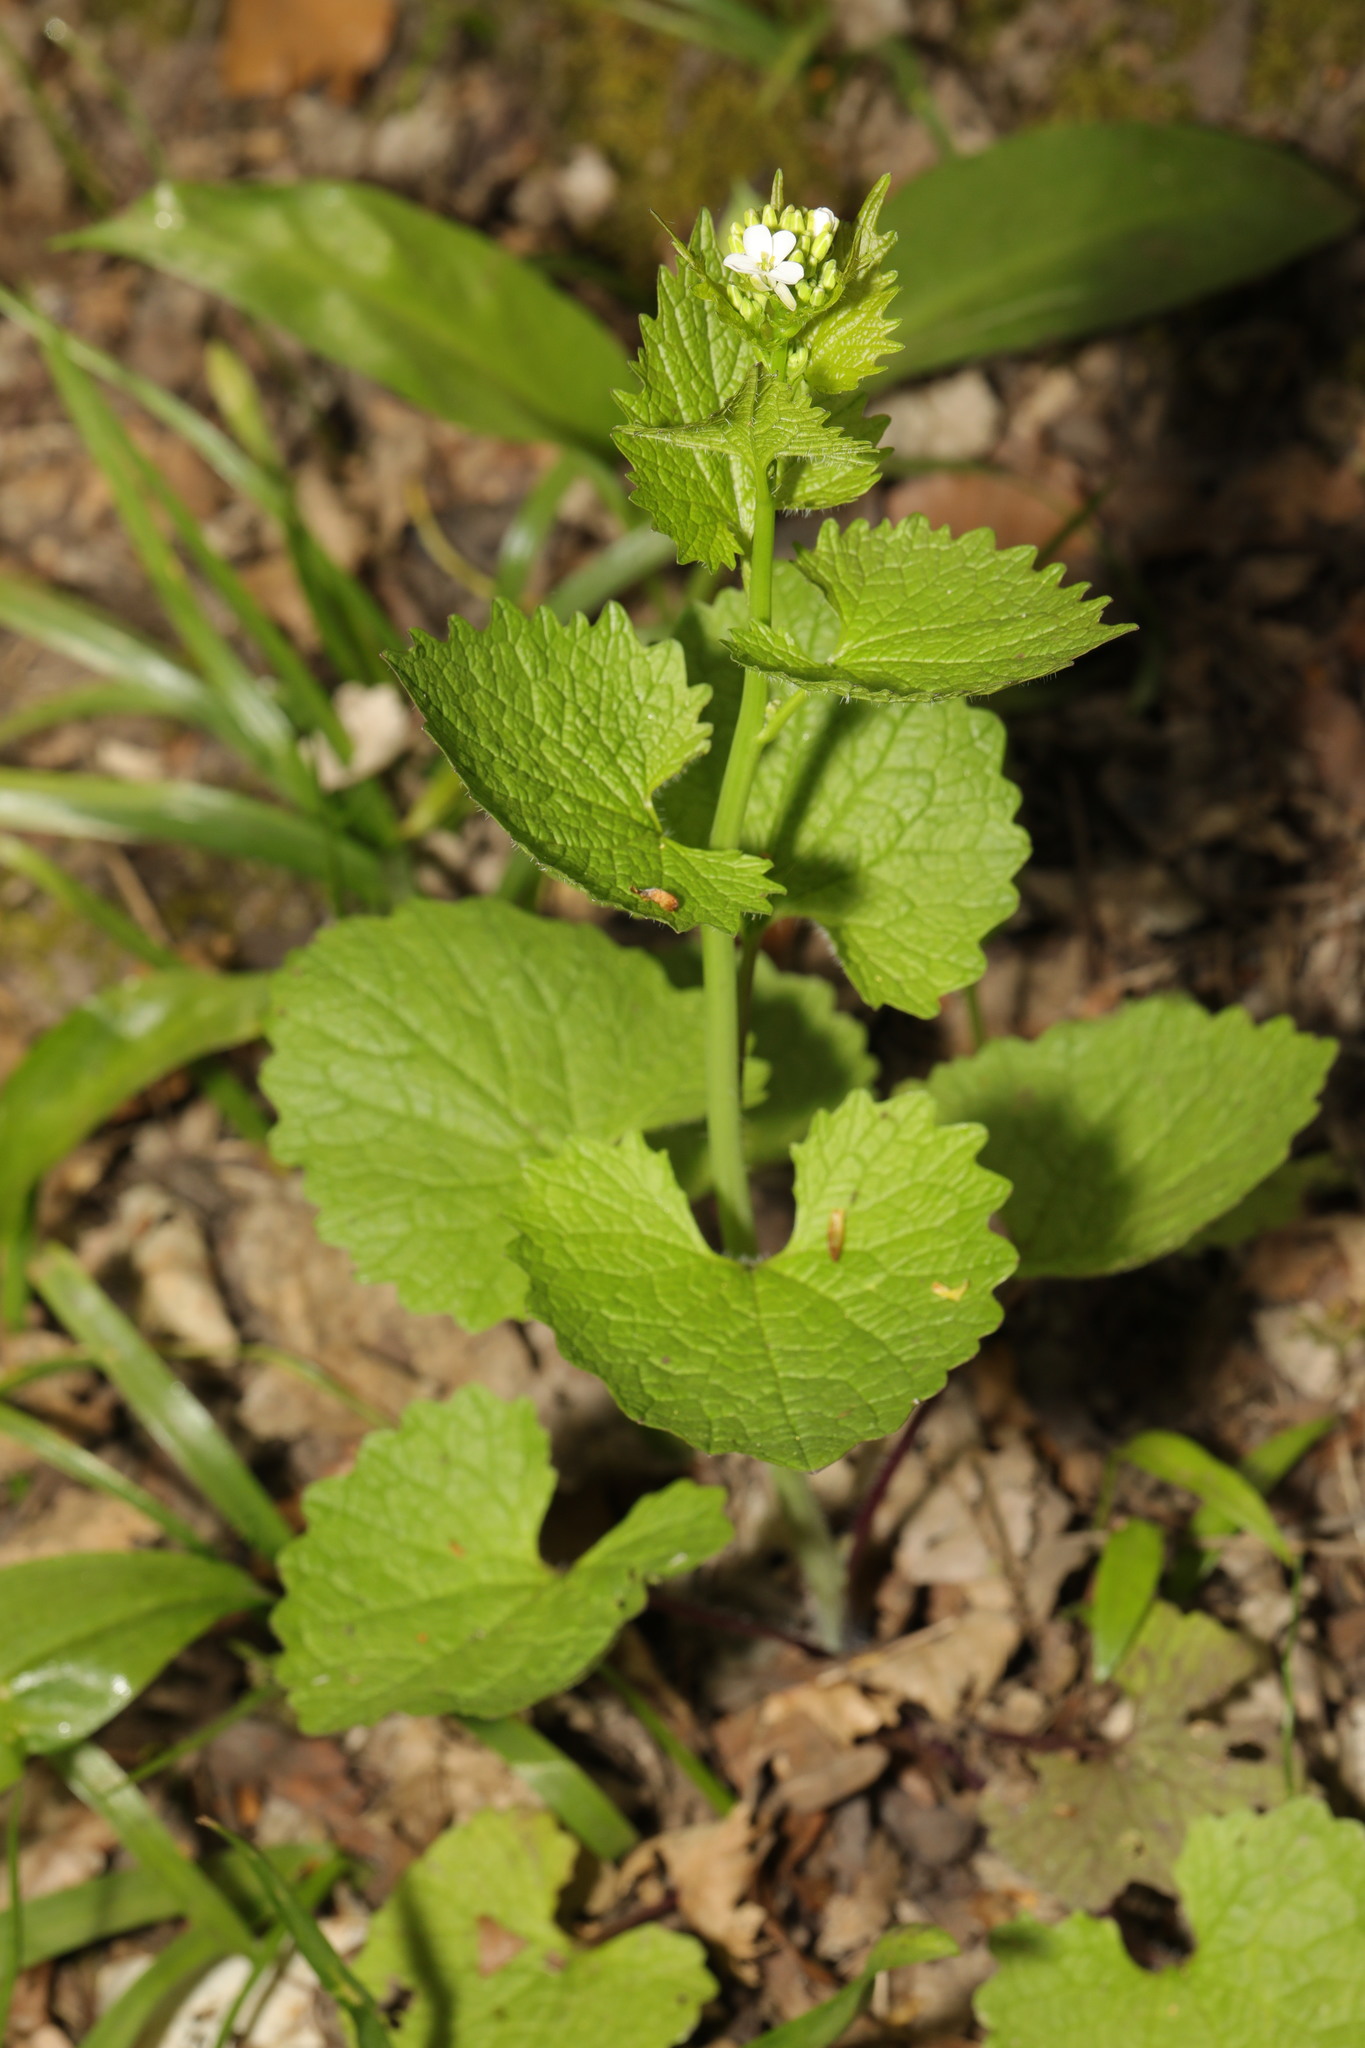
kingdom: Plantae
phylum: Tracheophyta
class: Magnoliopsida
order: Brassicales
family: Brassicaceae
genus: Alliaria
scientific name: Alliaria petiolata
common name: Garlic mustard
